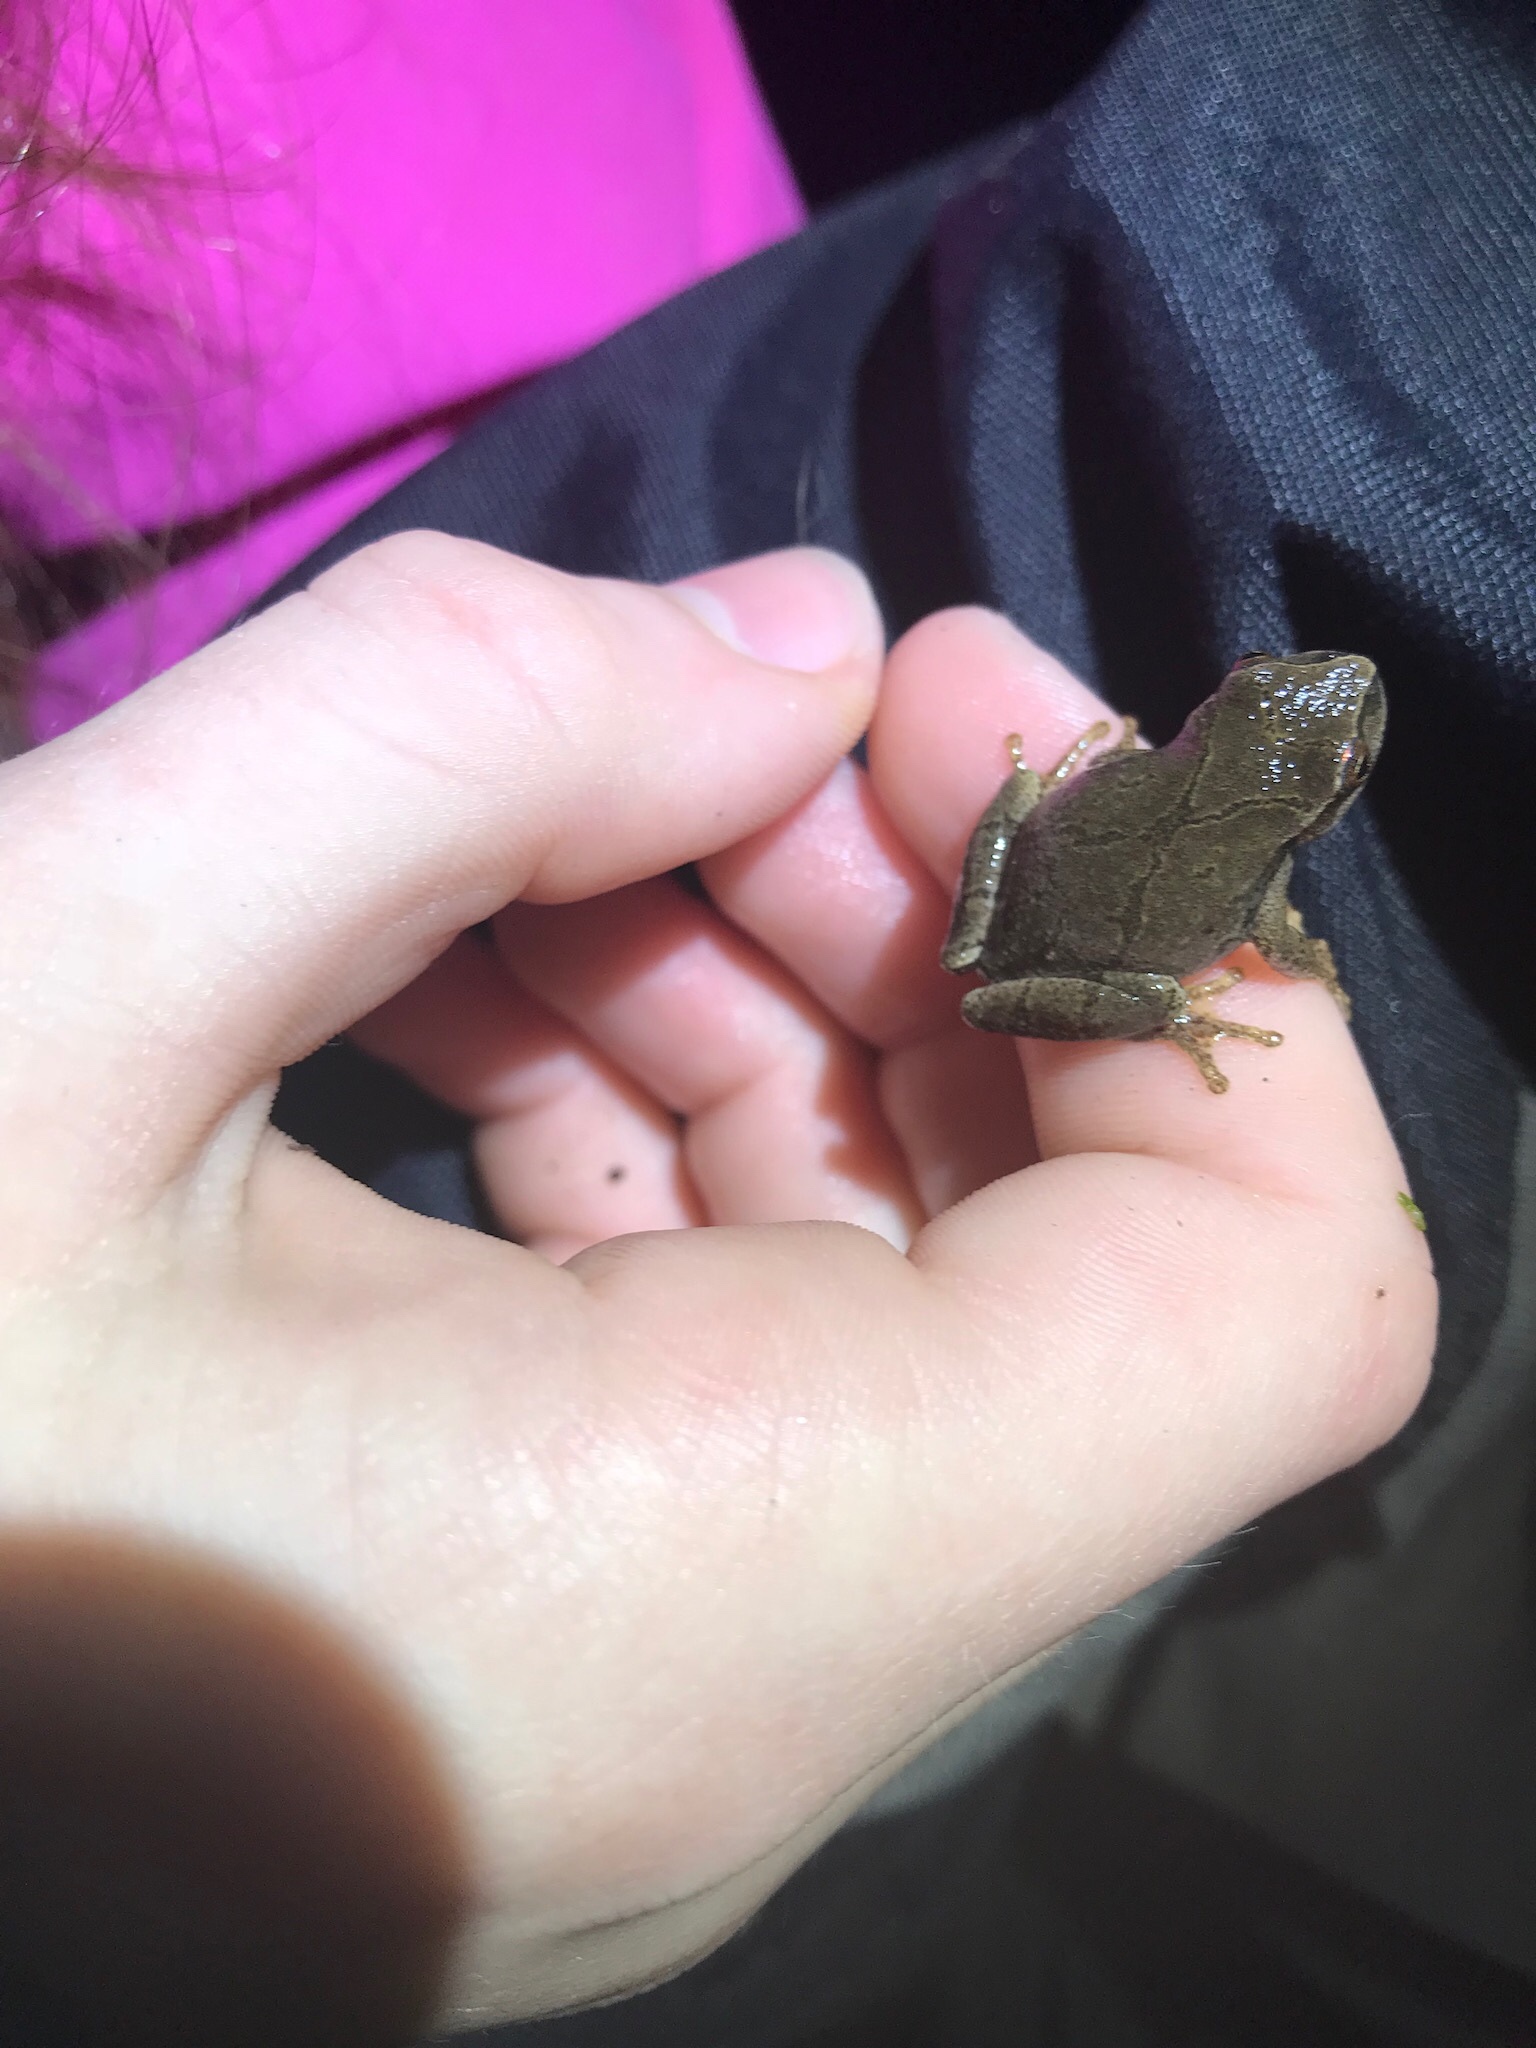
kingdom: Animalia
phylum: Chordata
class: Amphibia
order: Anura
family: Hylidae
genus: Pseudacris
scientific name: Pseudacris crucifer
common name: Spring peeper
